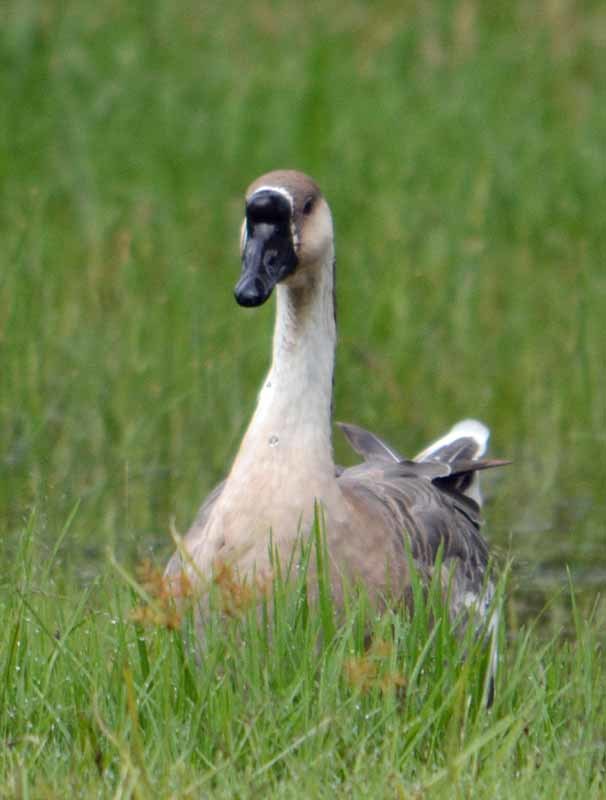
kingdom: Animalia
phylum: Chordata
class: Aves
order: Anseriformes
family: Anatidae
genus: Anser
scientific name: Anser cygnoides
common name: Swan goose
